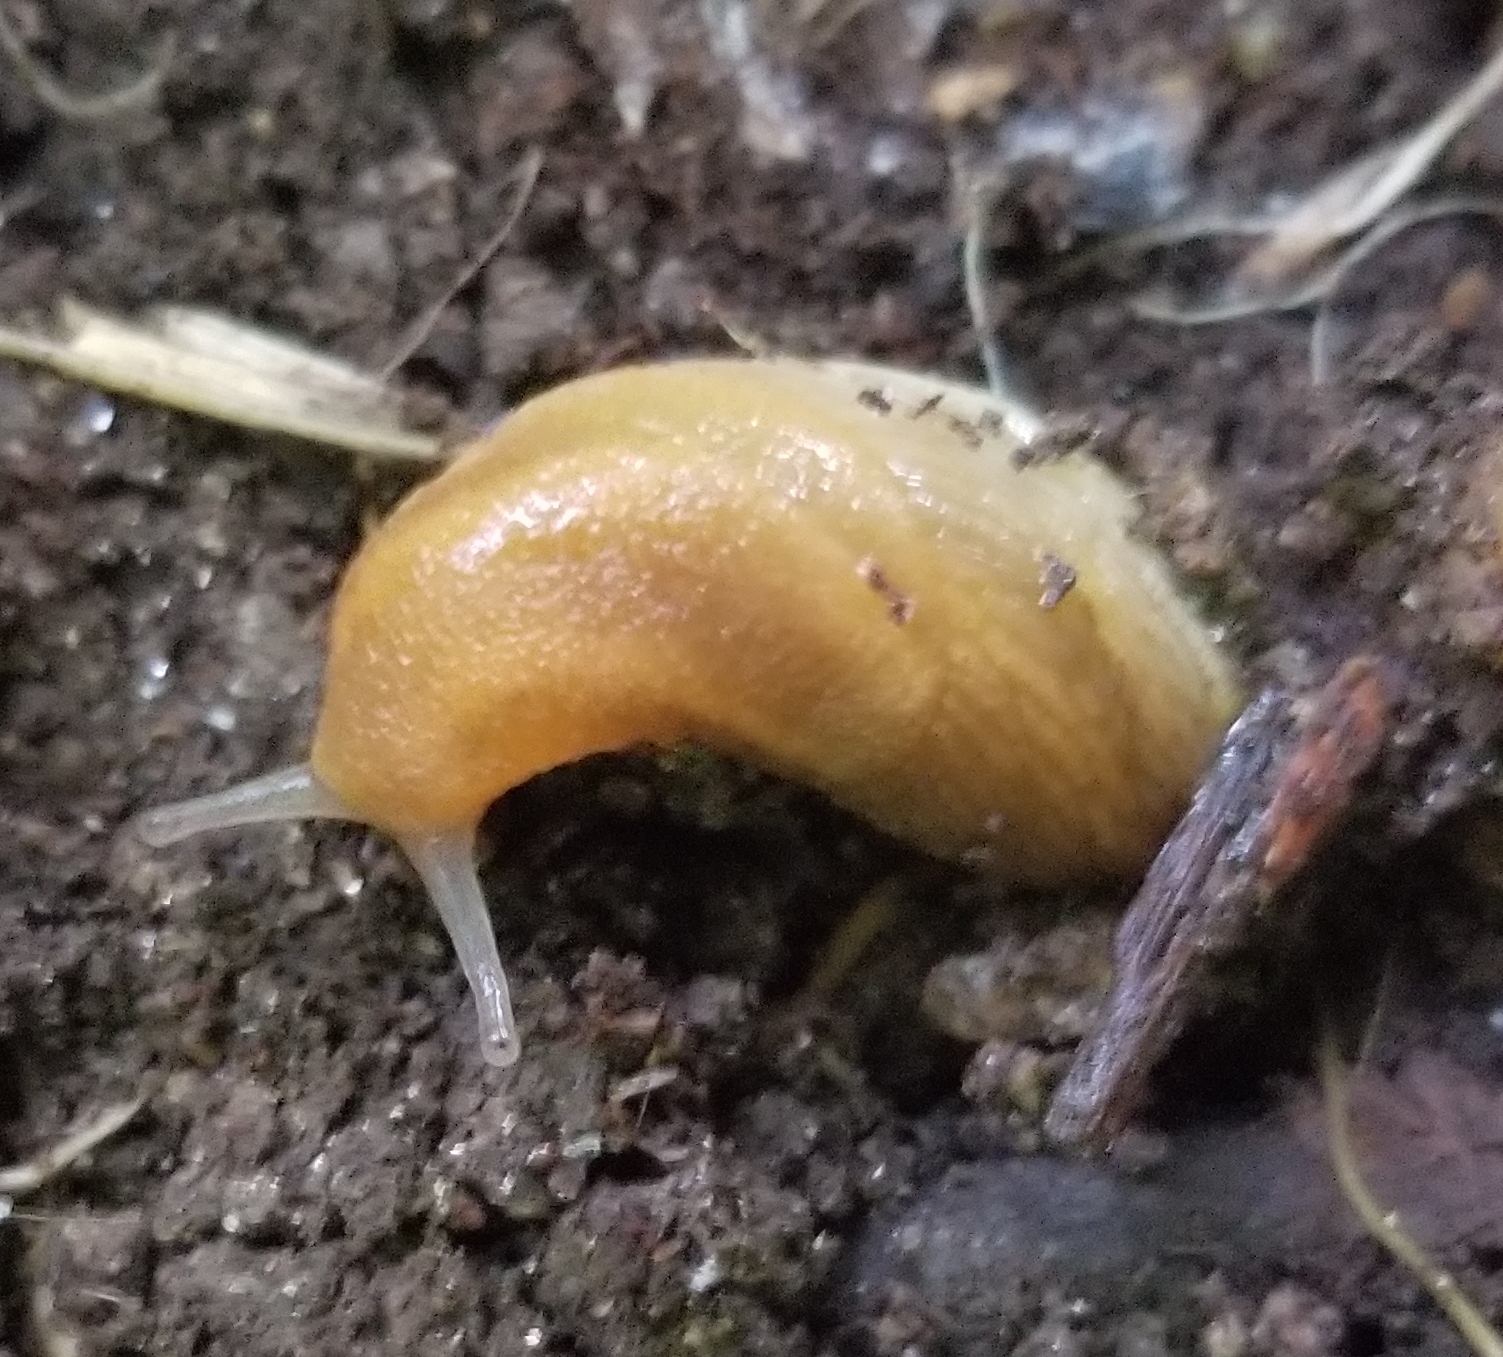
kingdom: Animalia
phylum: Mollusca
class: Gastropoda
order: Stylommatophora
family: Arionidae
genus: Arion
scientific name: Arion subfuscus
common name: Dusky arion
